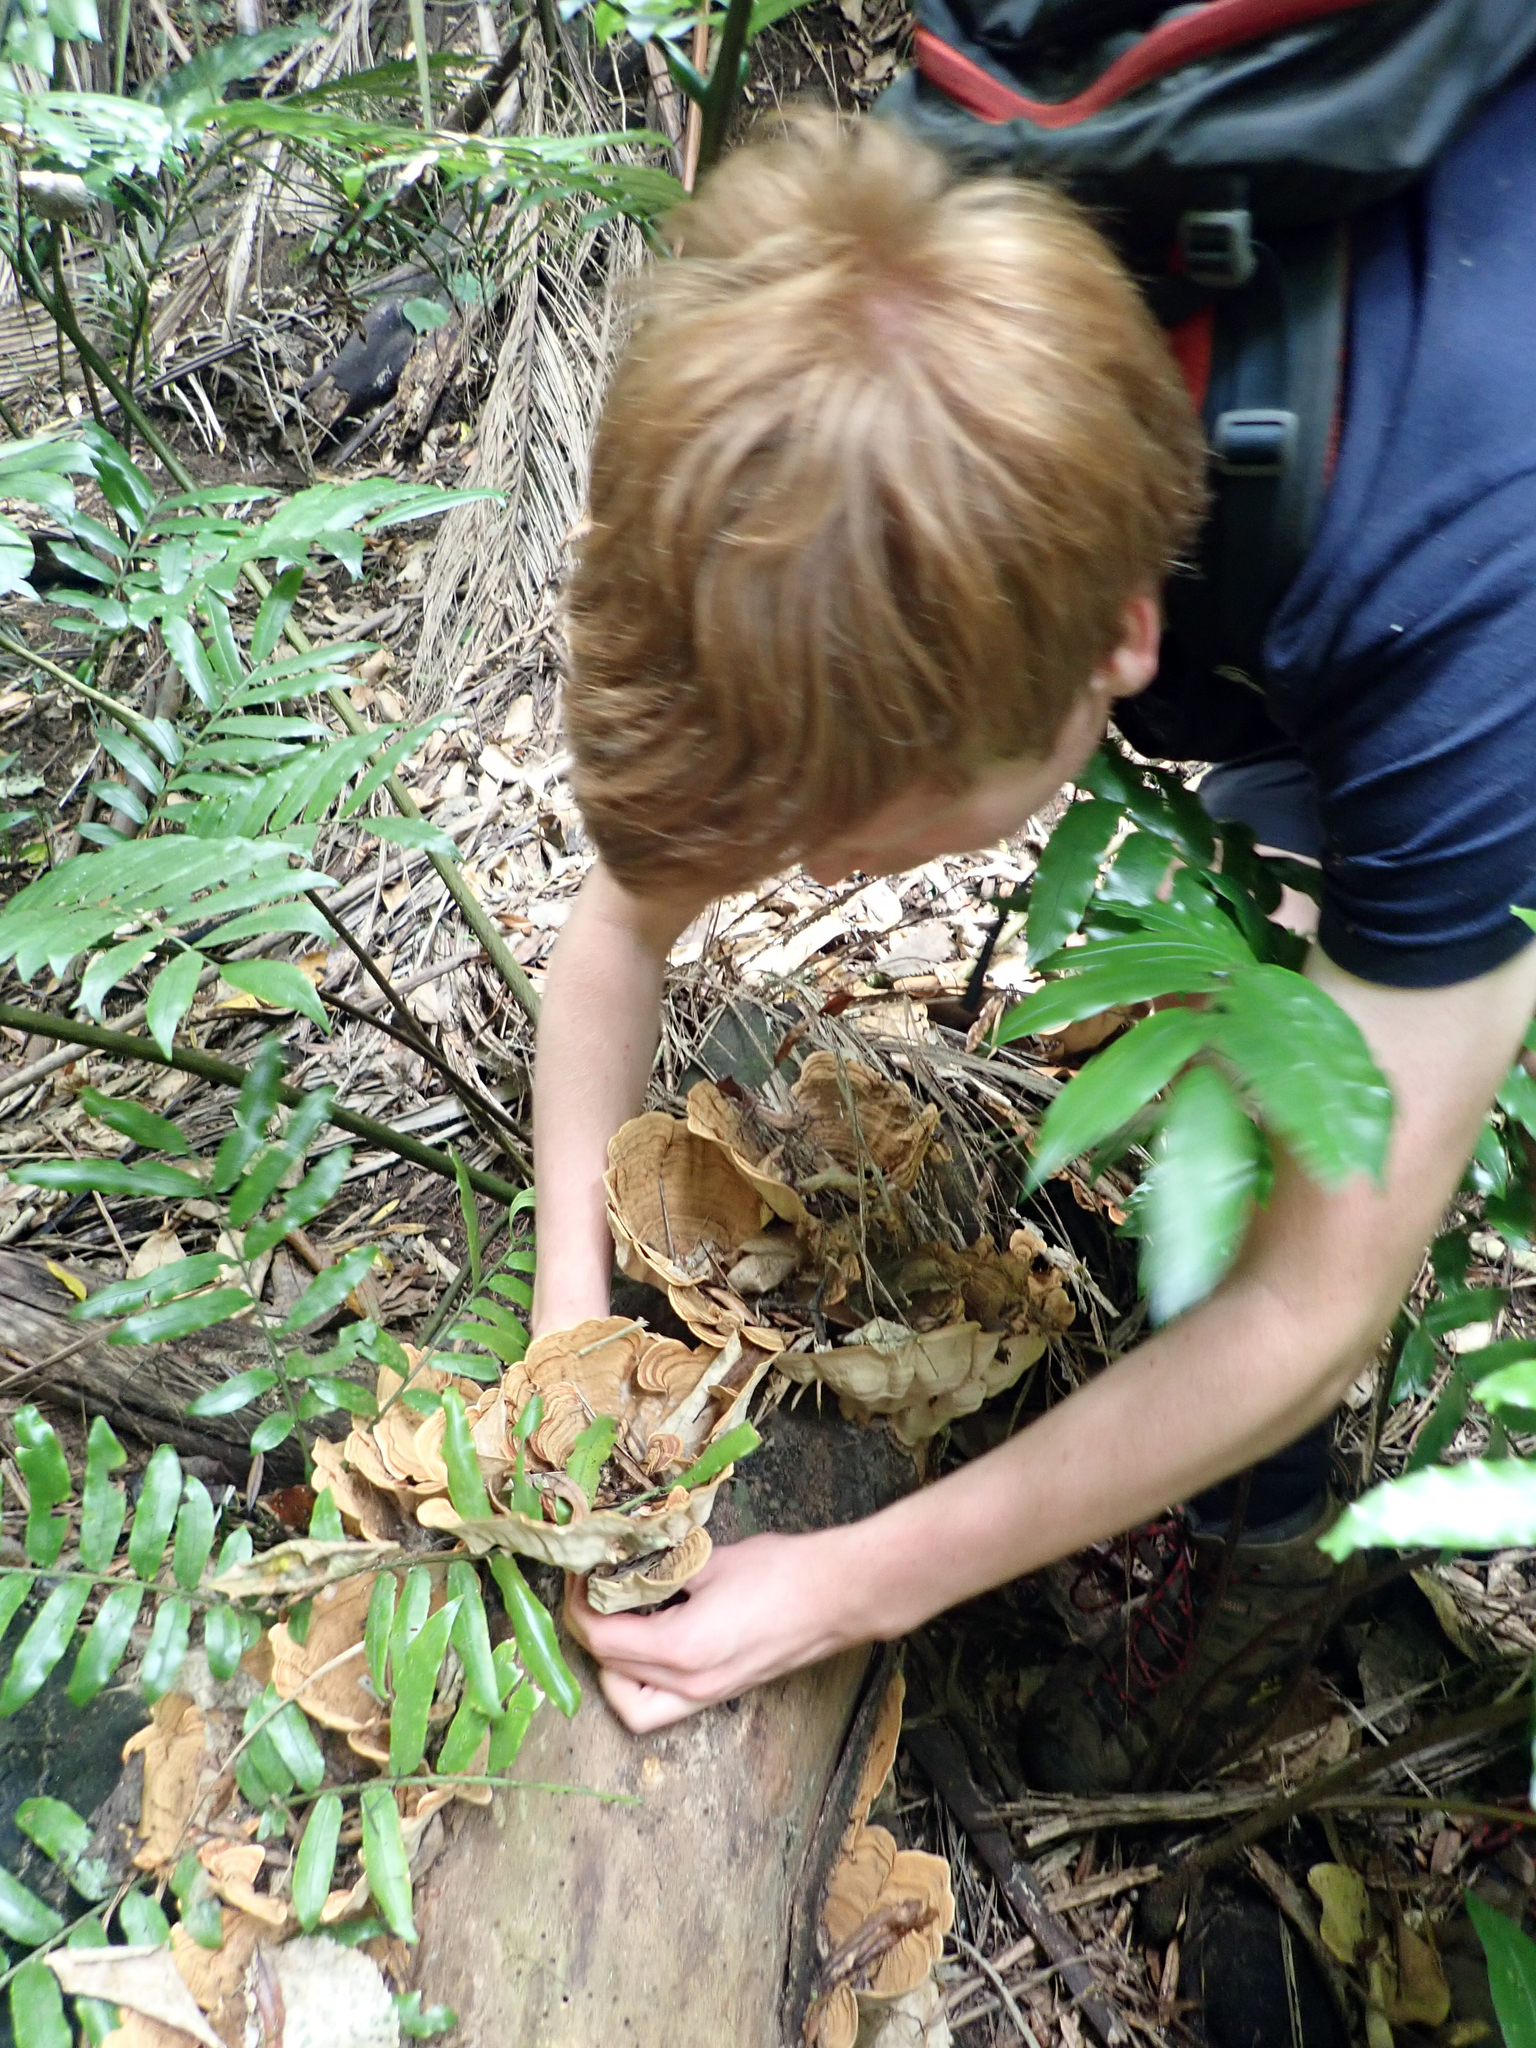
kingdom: Fungi
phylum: Basidiomycota
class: Agaricomycetes
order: Russulales
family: Stereaceae
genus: Stereum
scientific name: Stereum versicolor
